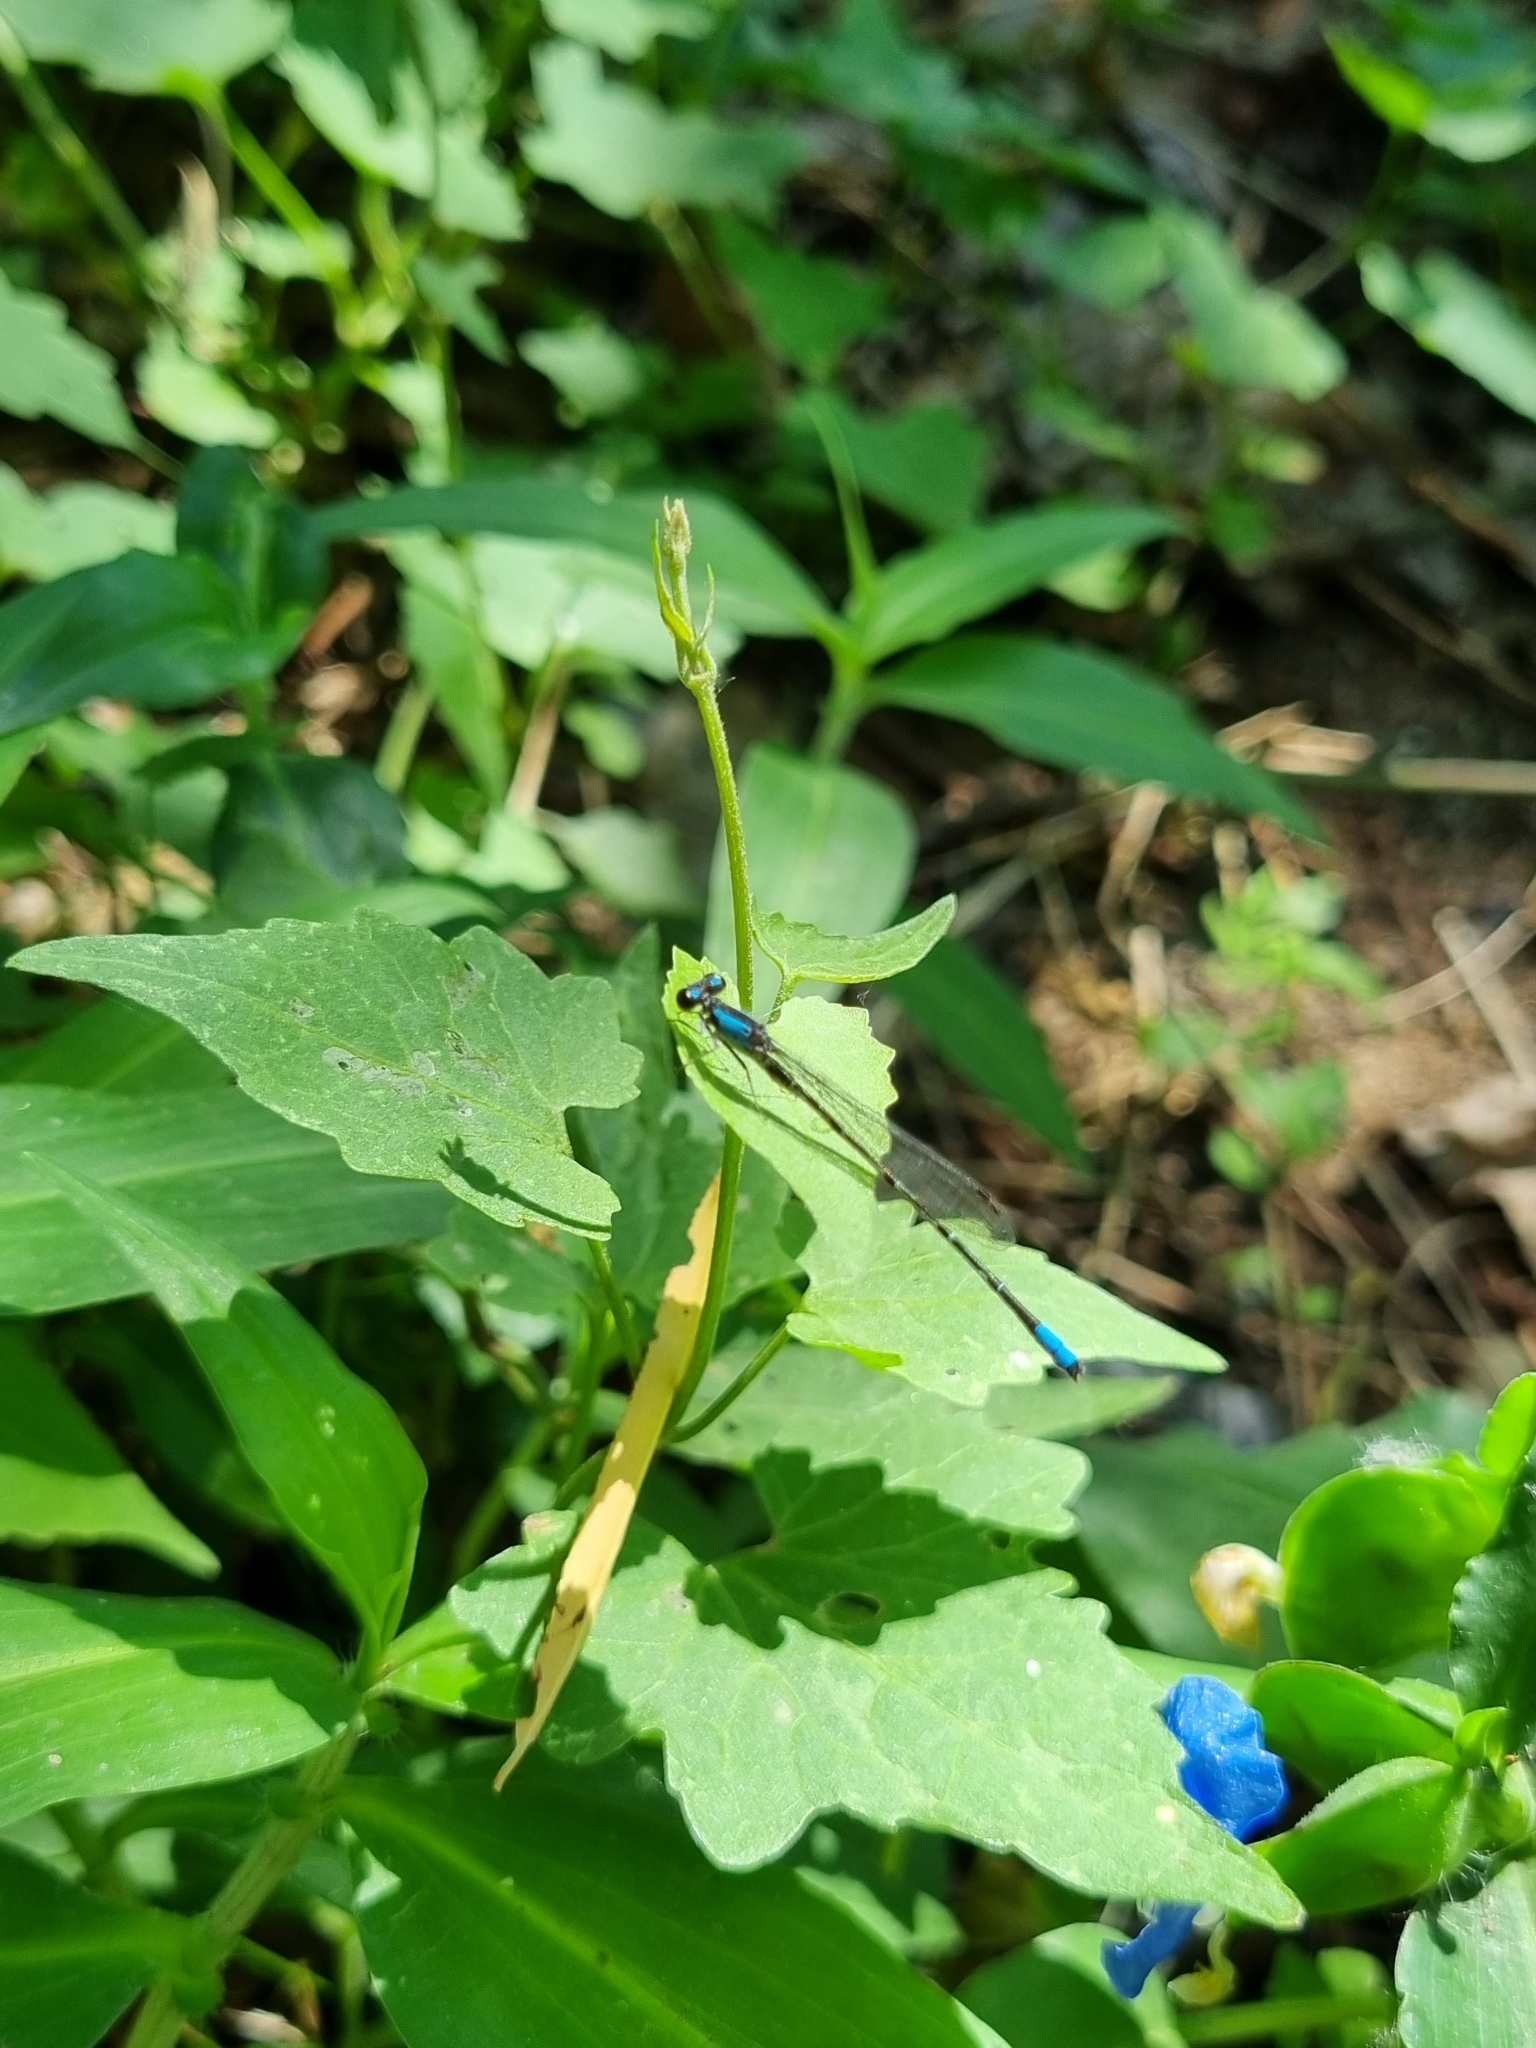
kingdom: Animalia
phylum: Arthropoda
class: Insecta
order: Odonata
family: Coenagrionidae
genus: Oxyagrion
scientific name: Oxyagrion ablutum
